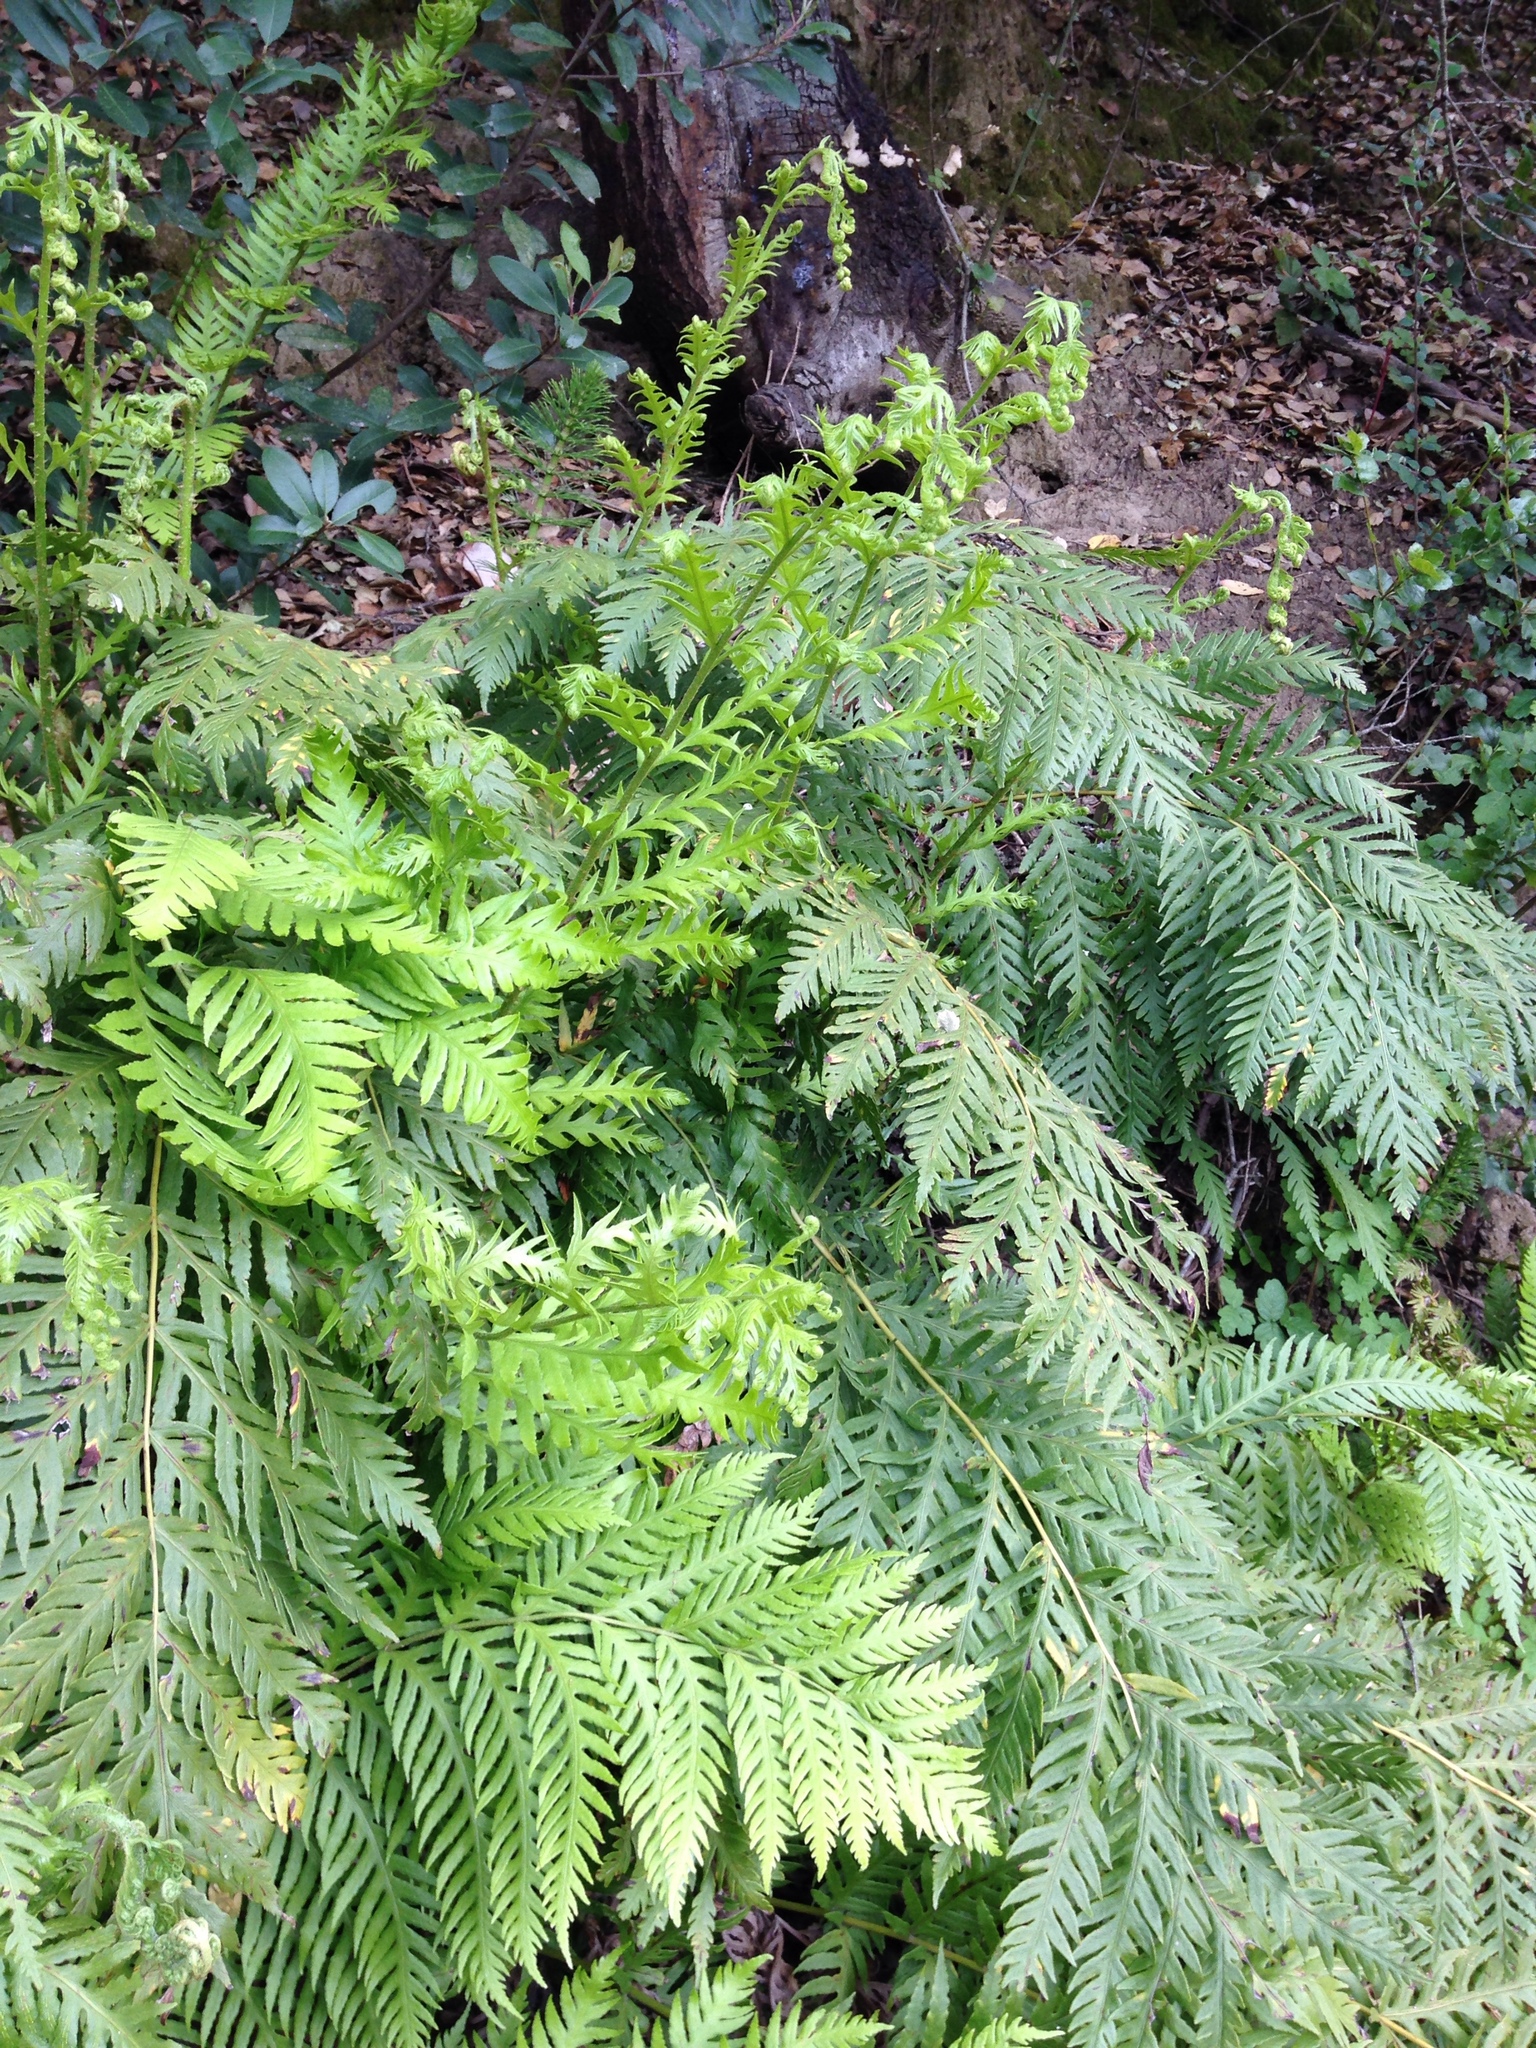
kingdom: Plantae
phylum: Tracheophyta
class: Polypodiopsida
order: Polypodiales
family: Blechnaceae
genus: Woodwardia
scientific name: Woodwardia fimbriata
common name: Giant chain fern
